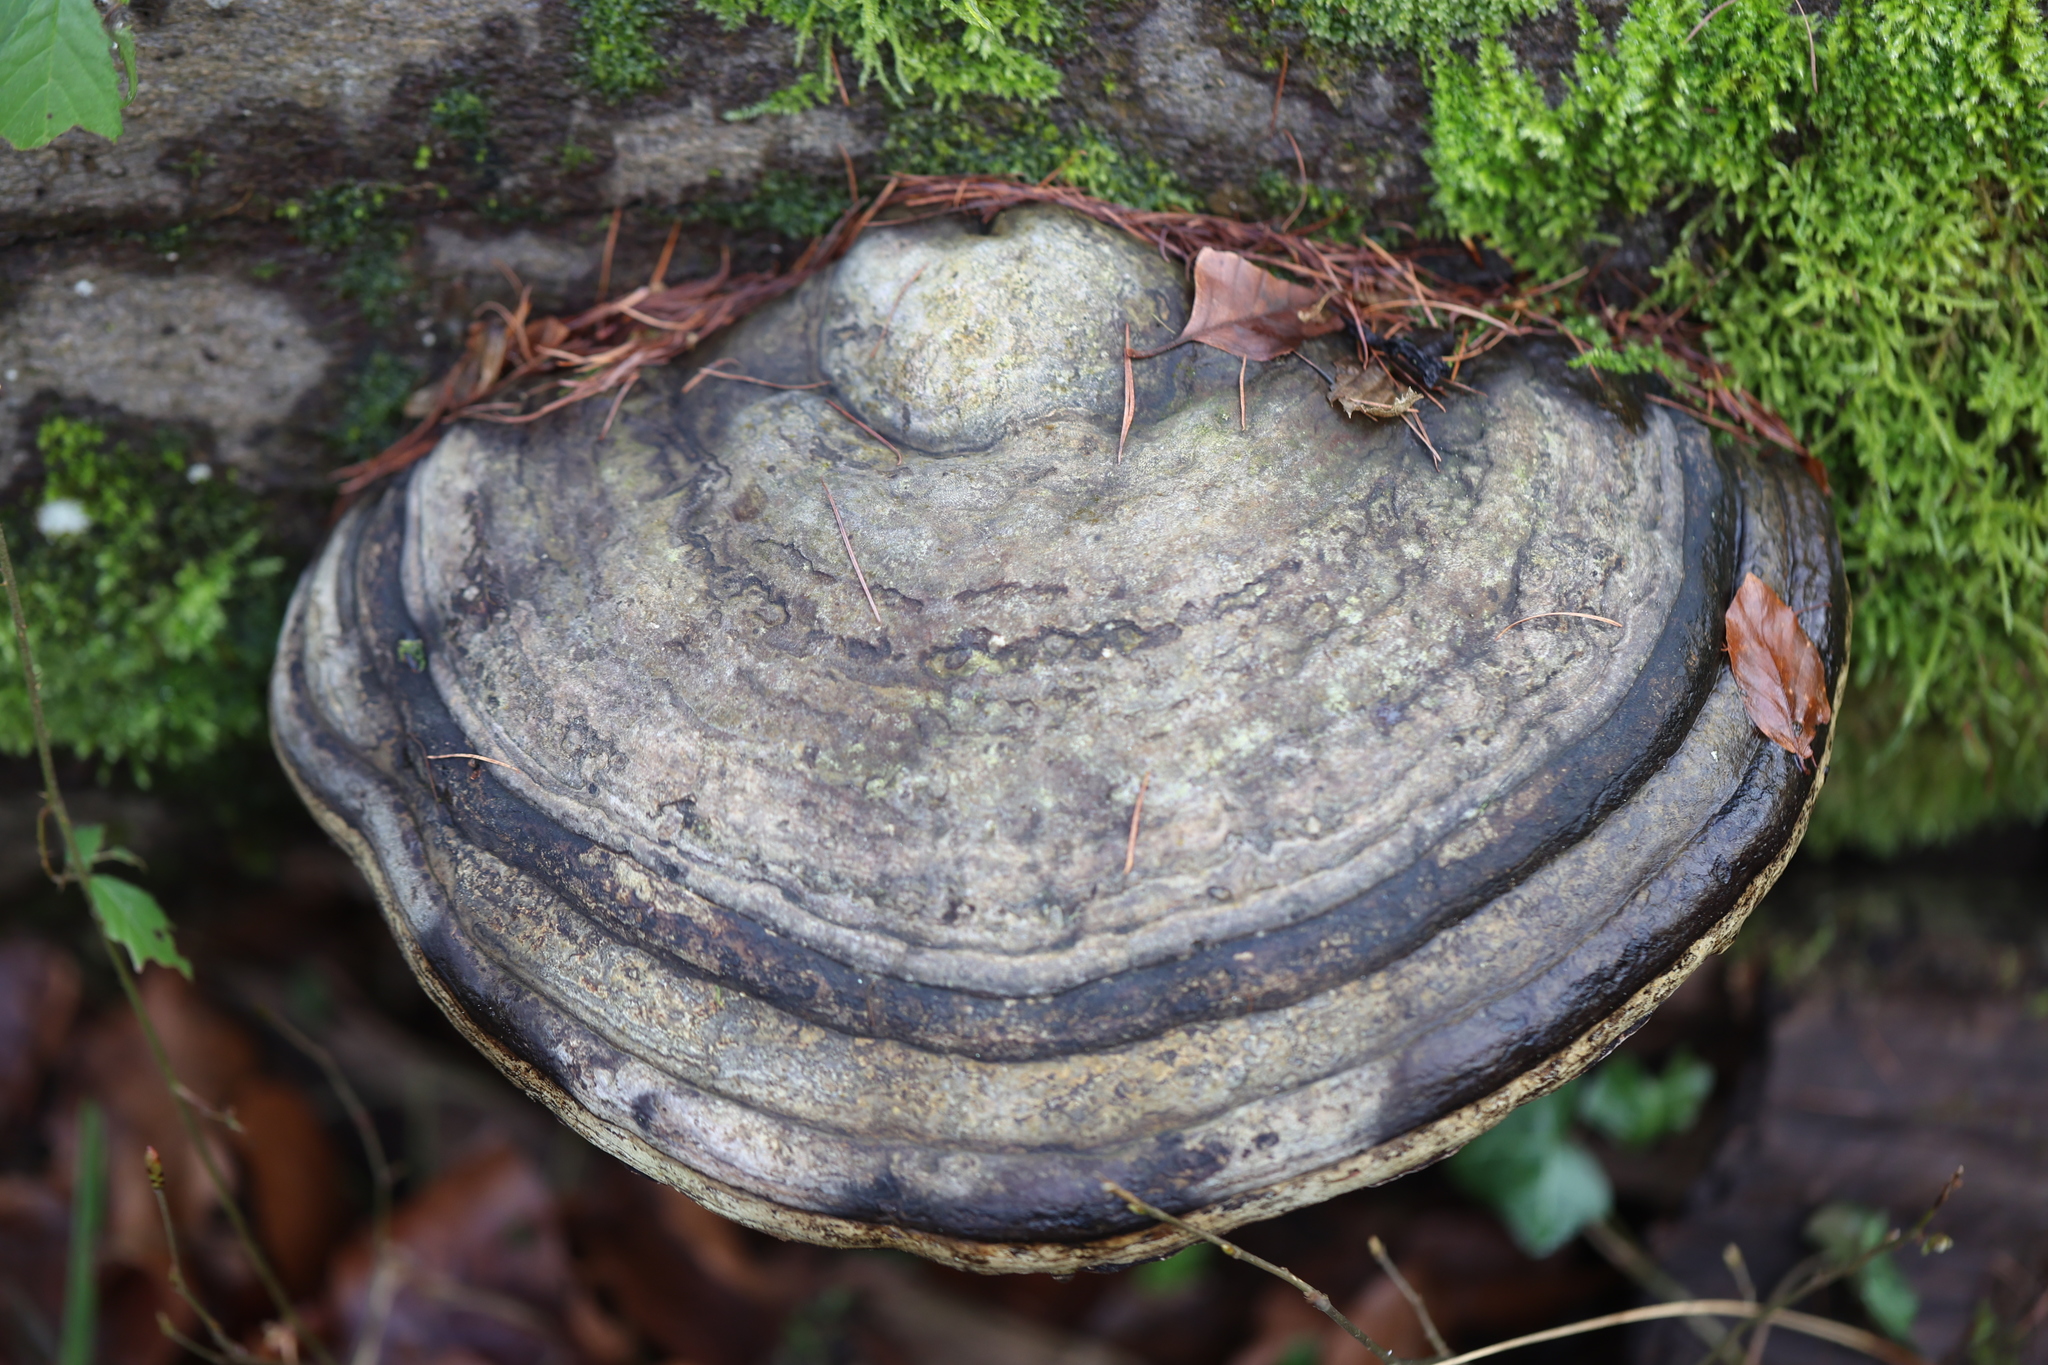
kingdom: Fungi
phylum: Basidiomycota
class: Agaricomycetes
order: Polyporales
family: Polyporaceae
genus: Fomes
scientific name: Fomes fomentarius
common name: Hoof fungus
